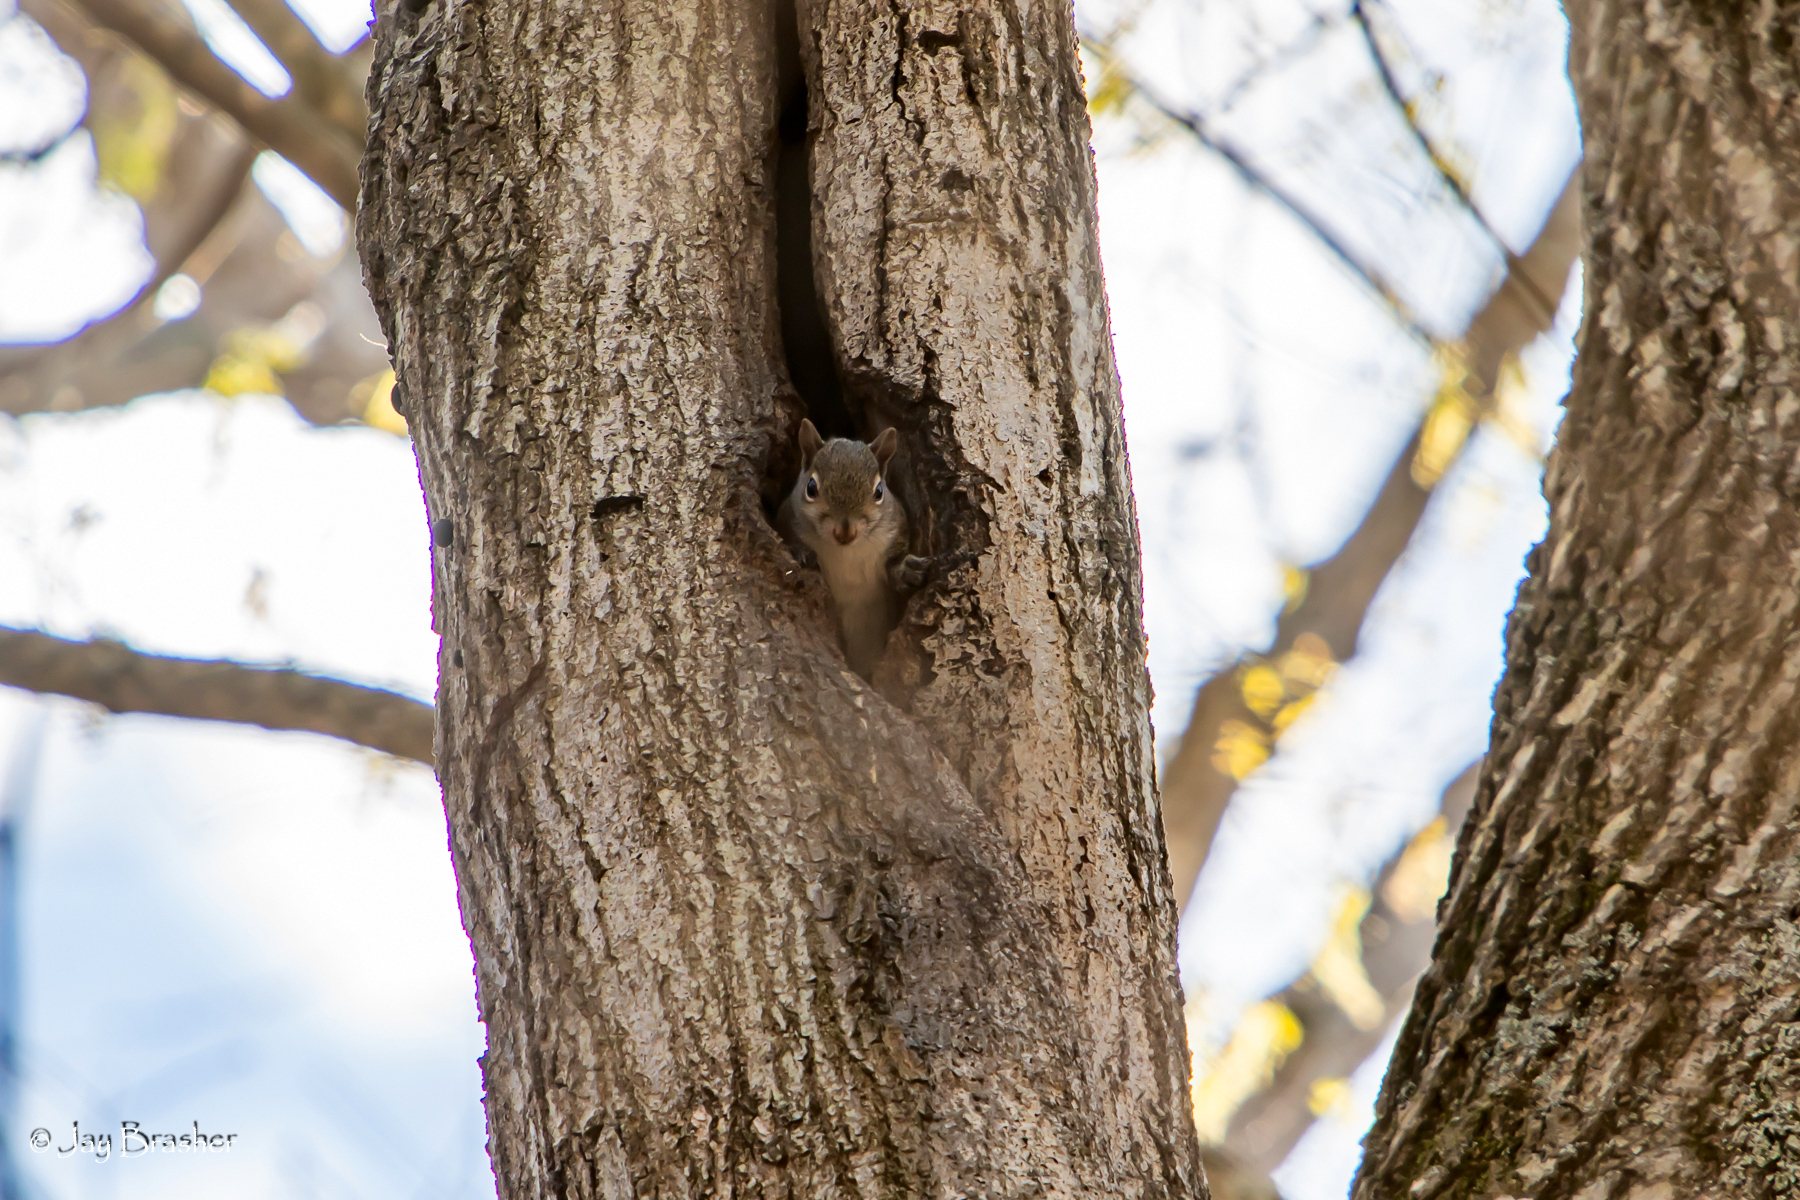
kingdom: Animalia
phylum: Chordata
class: Mammalia
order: Rodentia
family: Sciuridae
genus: Sciurus
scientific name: Sciurus carolinensis
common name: Eastern gray squirrel
